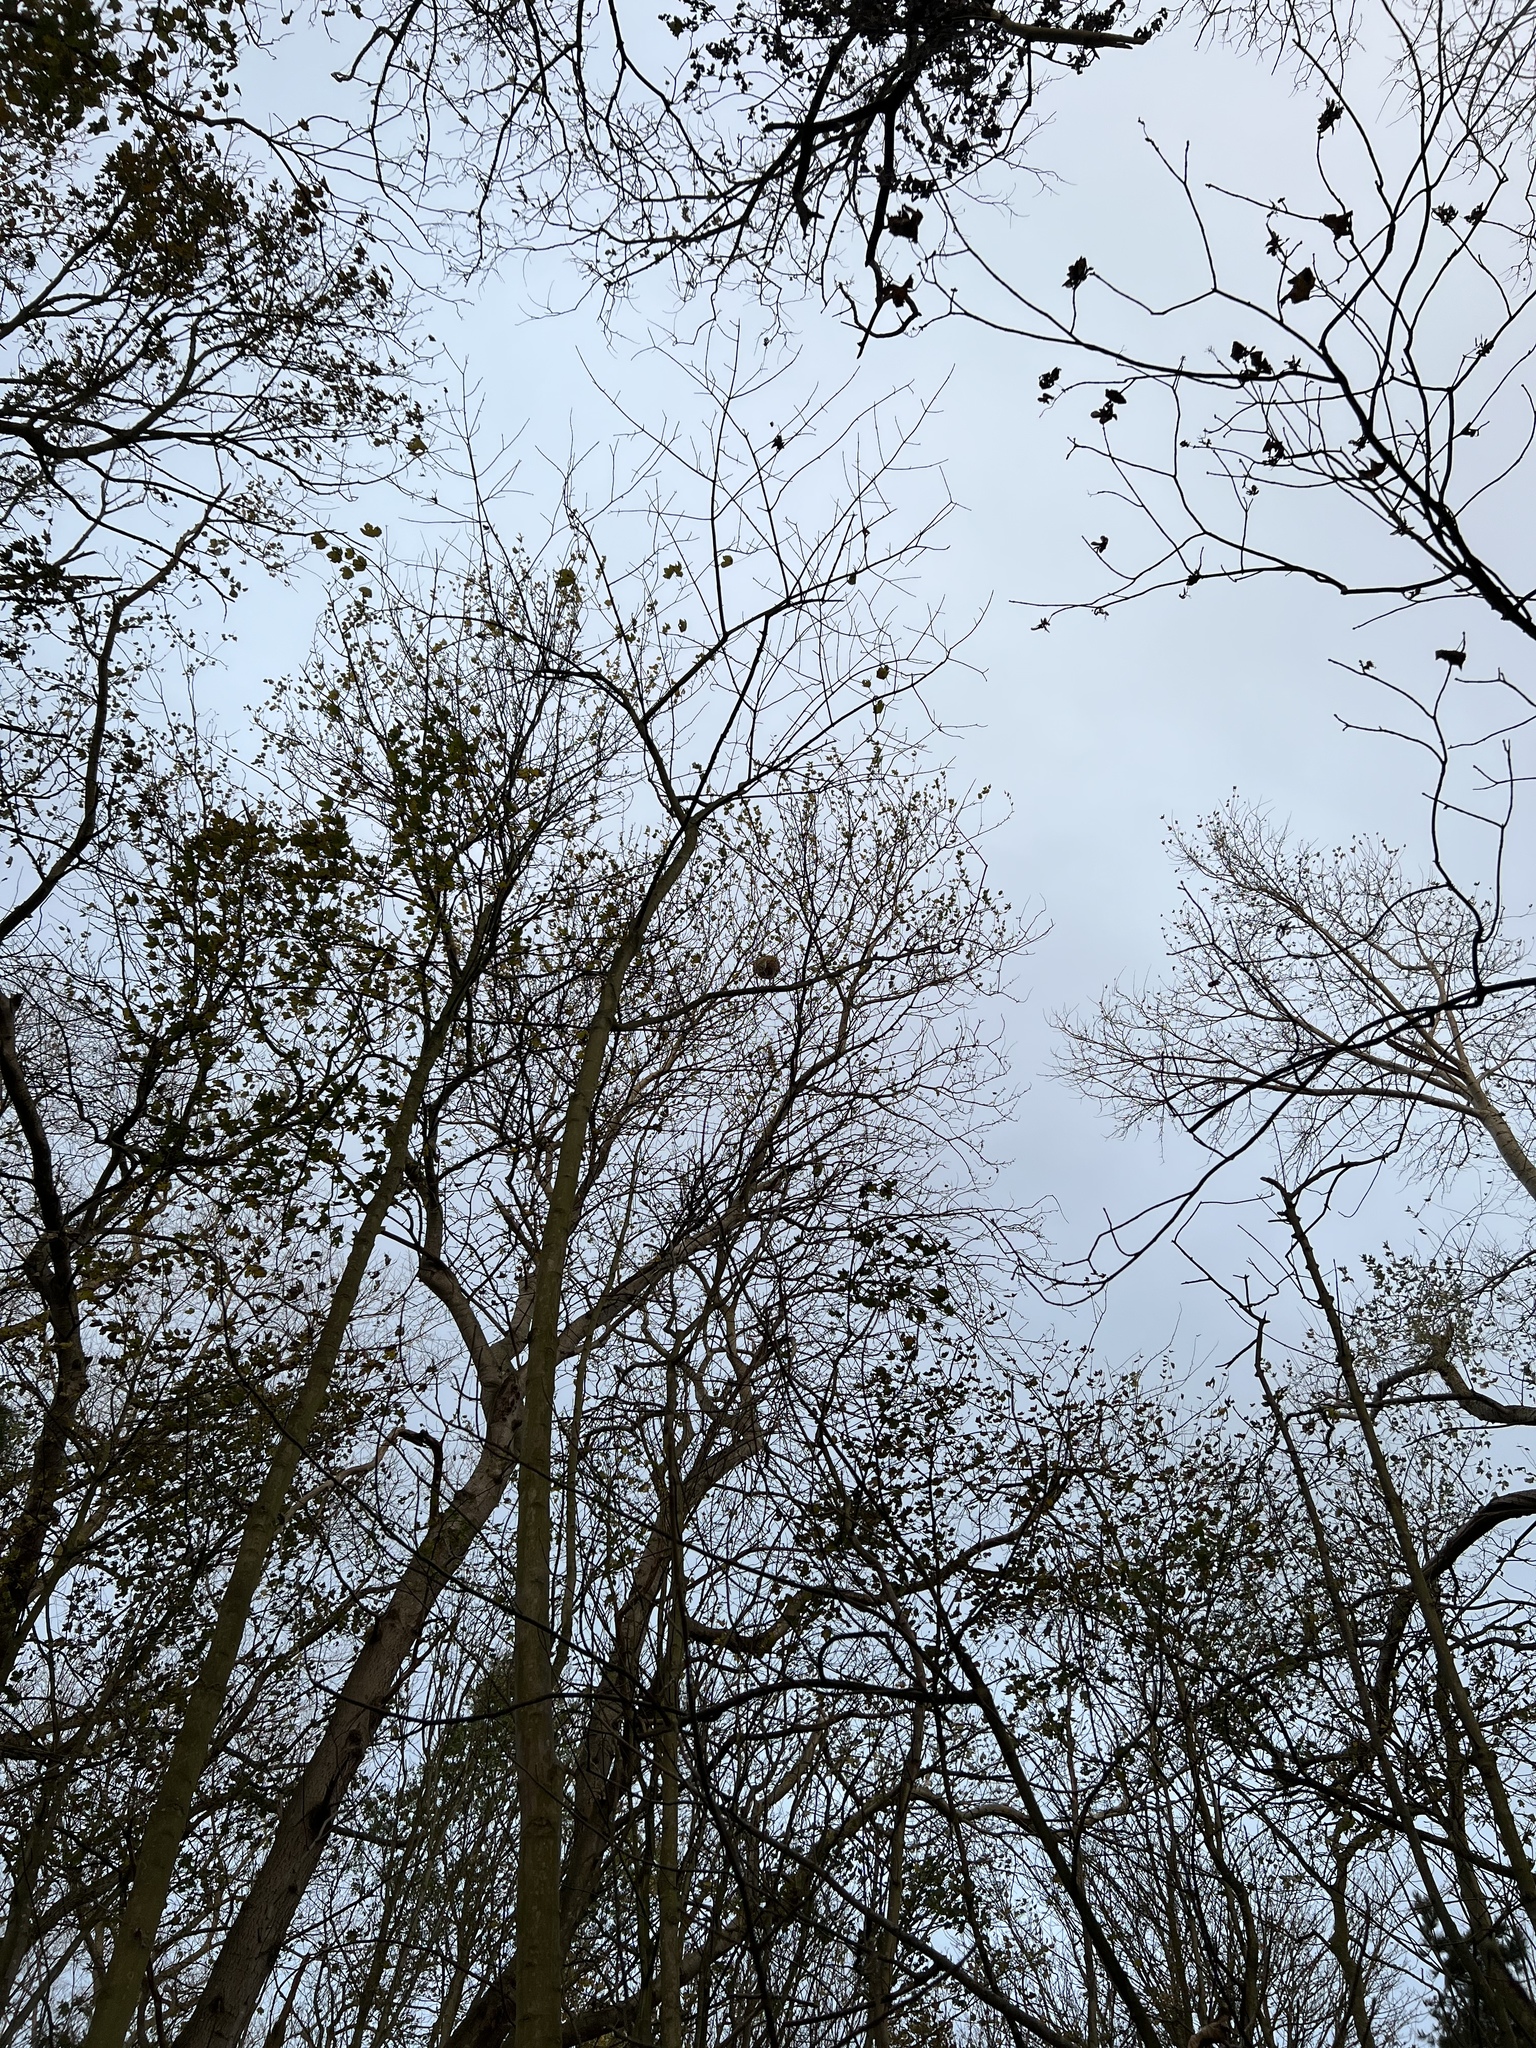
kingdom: Animalia
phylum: Arthropoda
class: Insecta
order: Hymenoptera
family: Vespidae
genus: Vespa
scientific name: Vespa velutina
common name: Asian hornet
